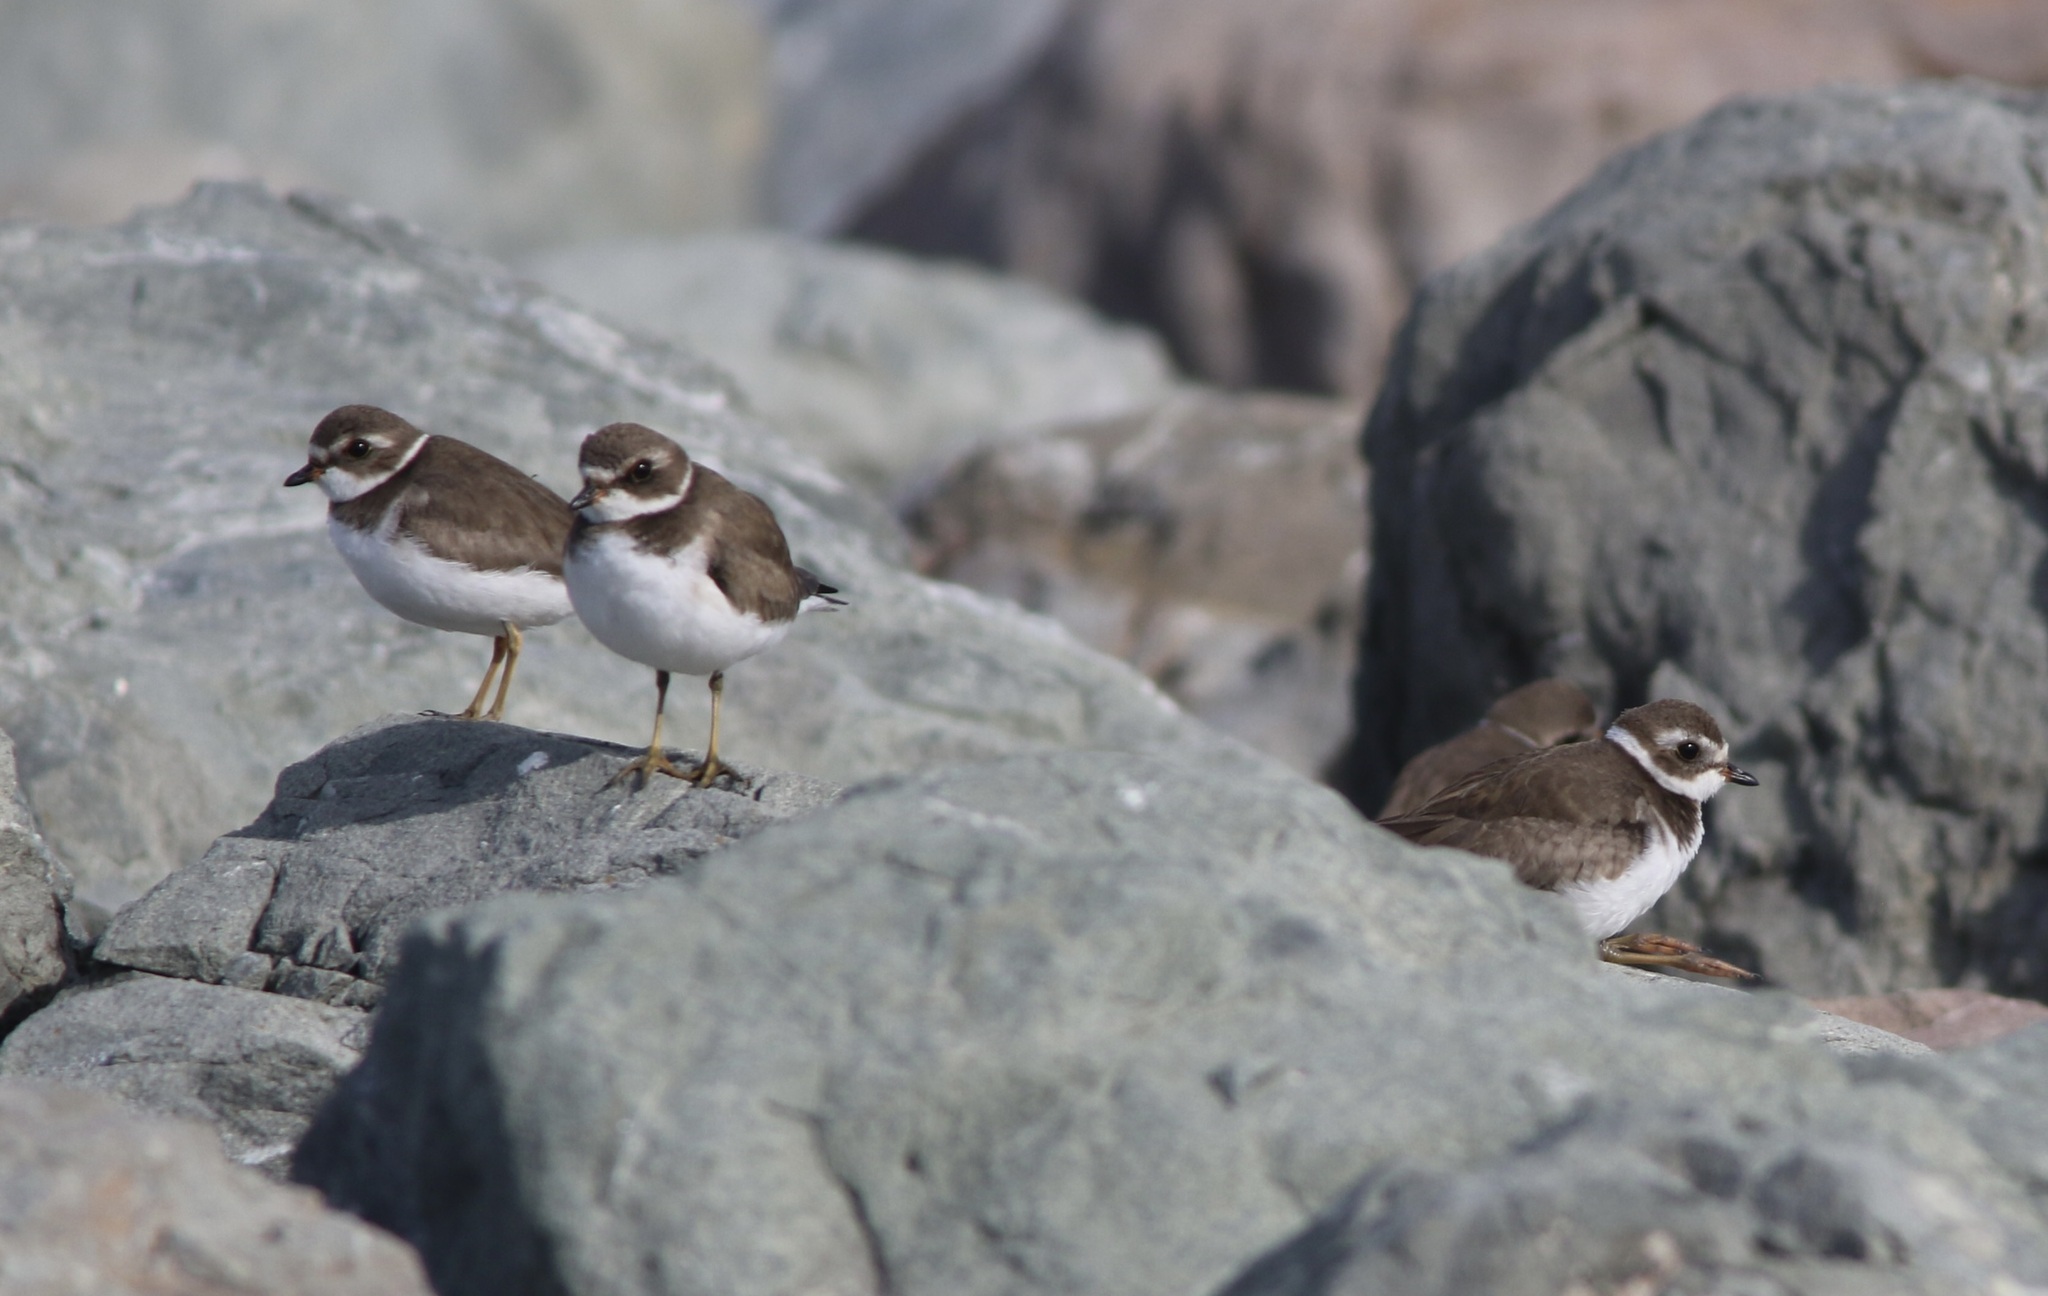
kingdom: Animalia
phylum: Chordata
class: Aves
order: Charadriiformes
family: Charadriidae
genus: Charadrius
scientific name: Charadrius semipalmatus
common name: Semipalmated plover
